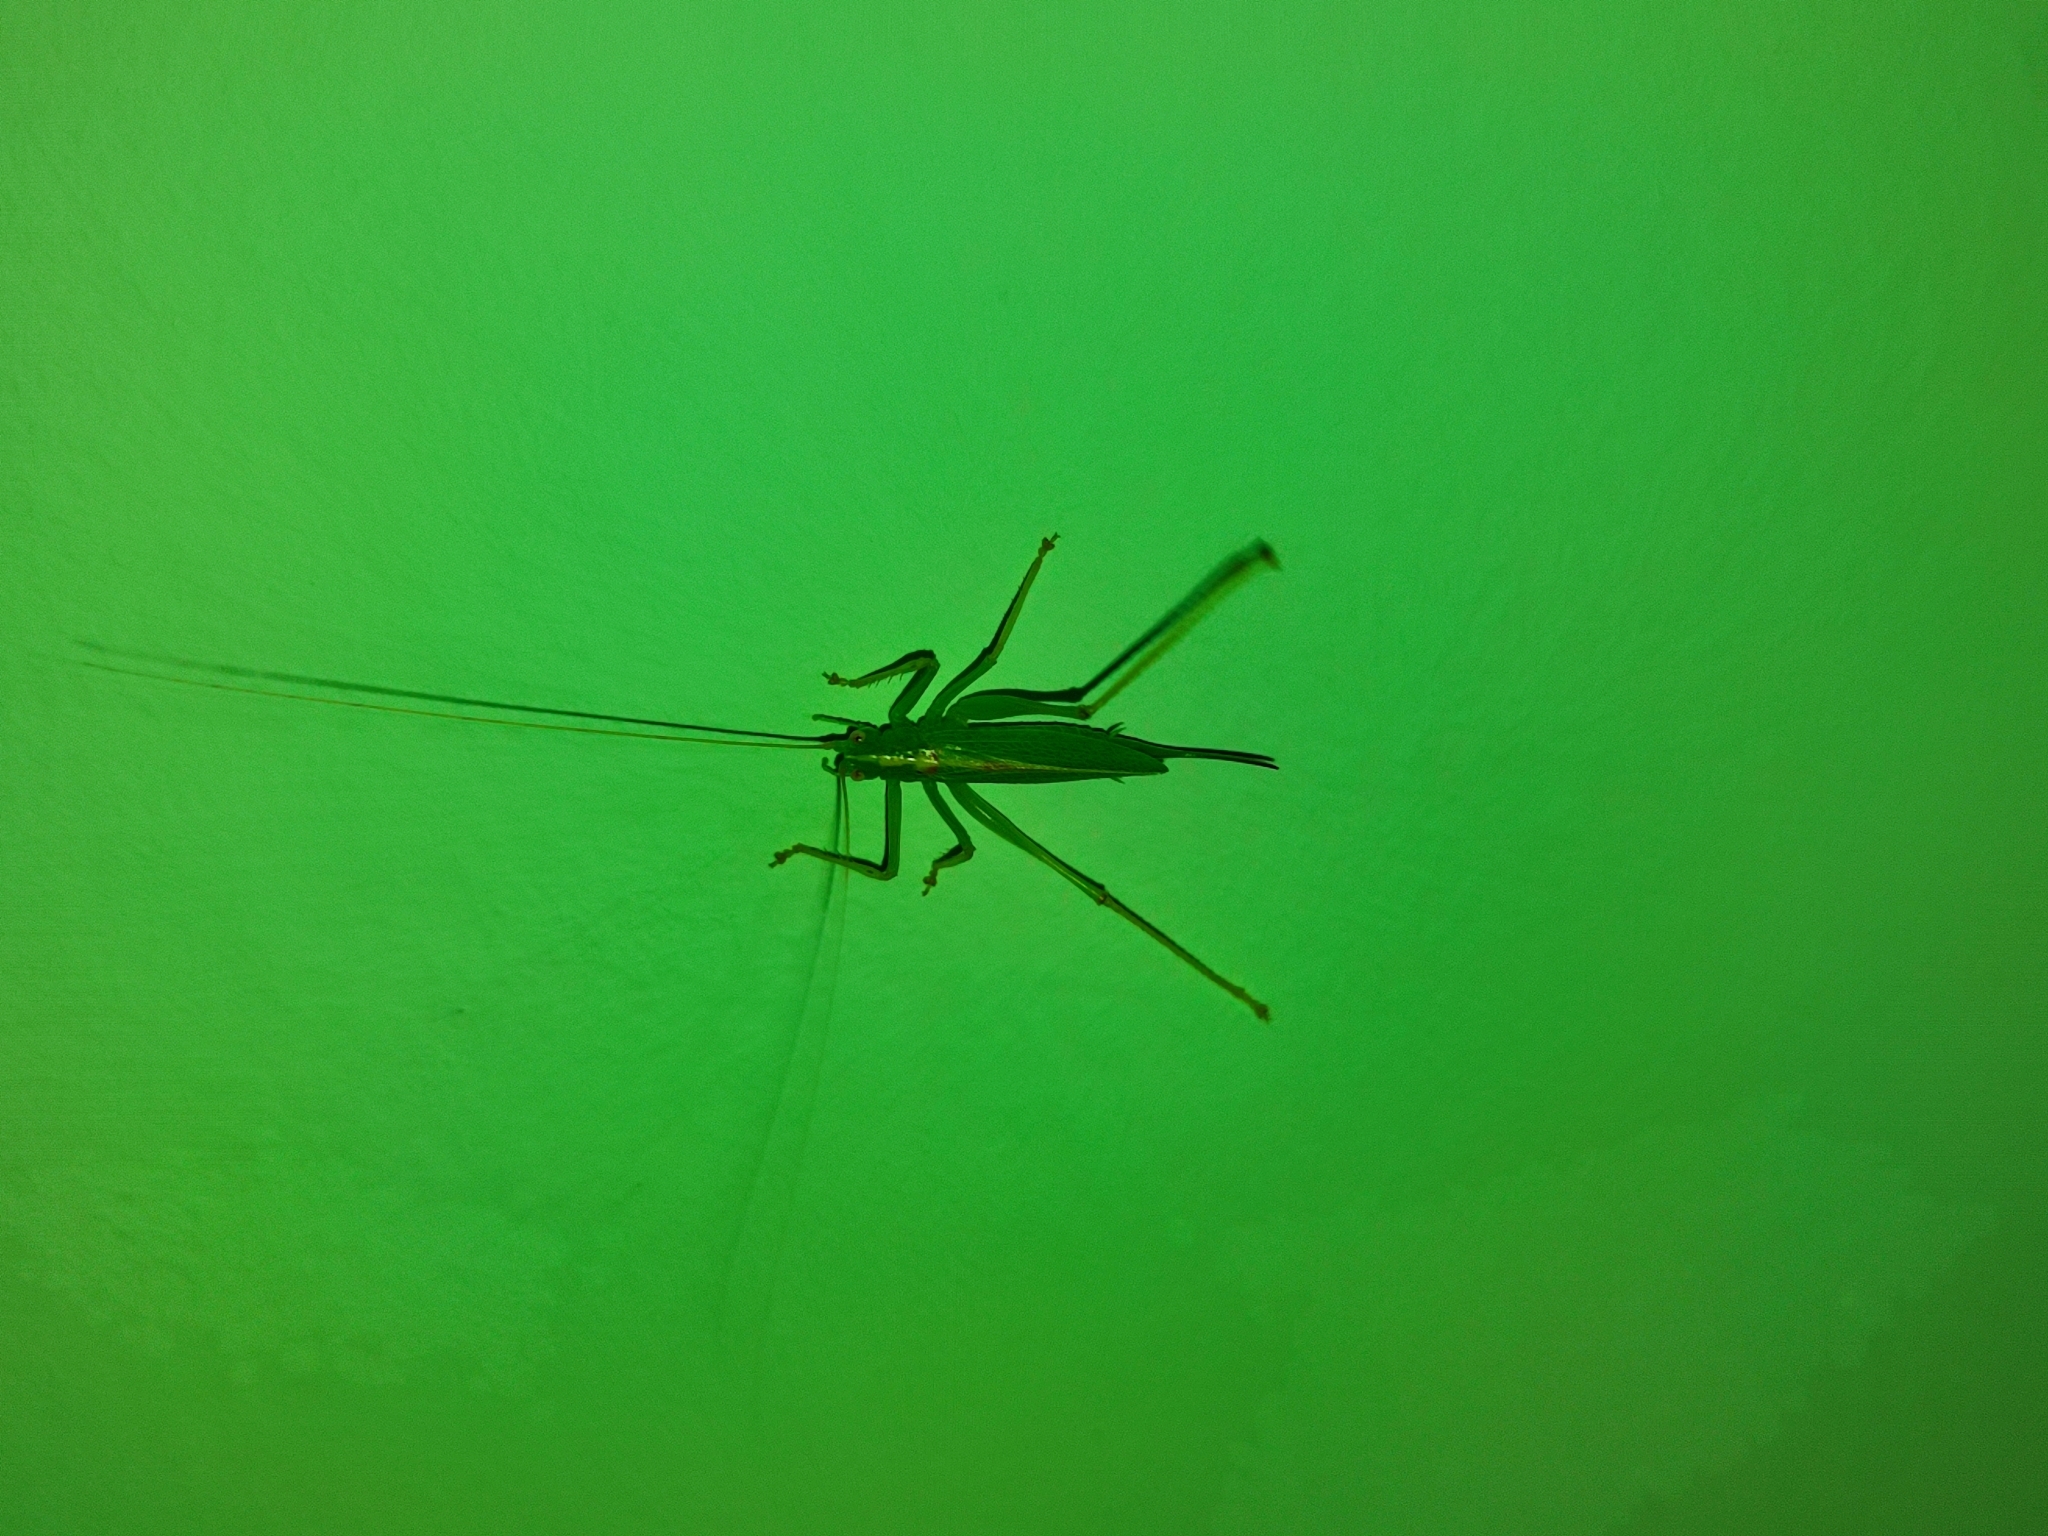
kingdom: Animalia
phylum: Arthropoda
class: Insecta
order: Orthoptera
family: Tettigoniidae
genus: Meconema
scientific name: Meconema thalassinum
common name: Oak bush-cricket
